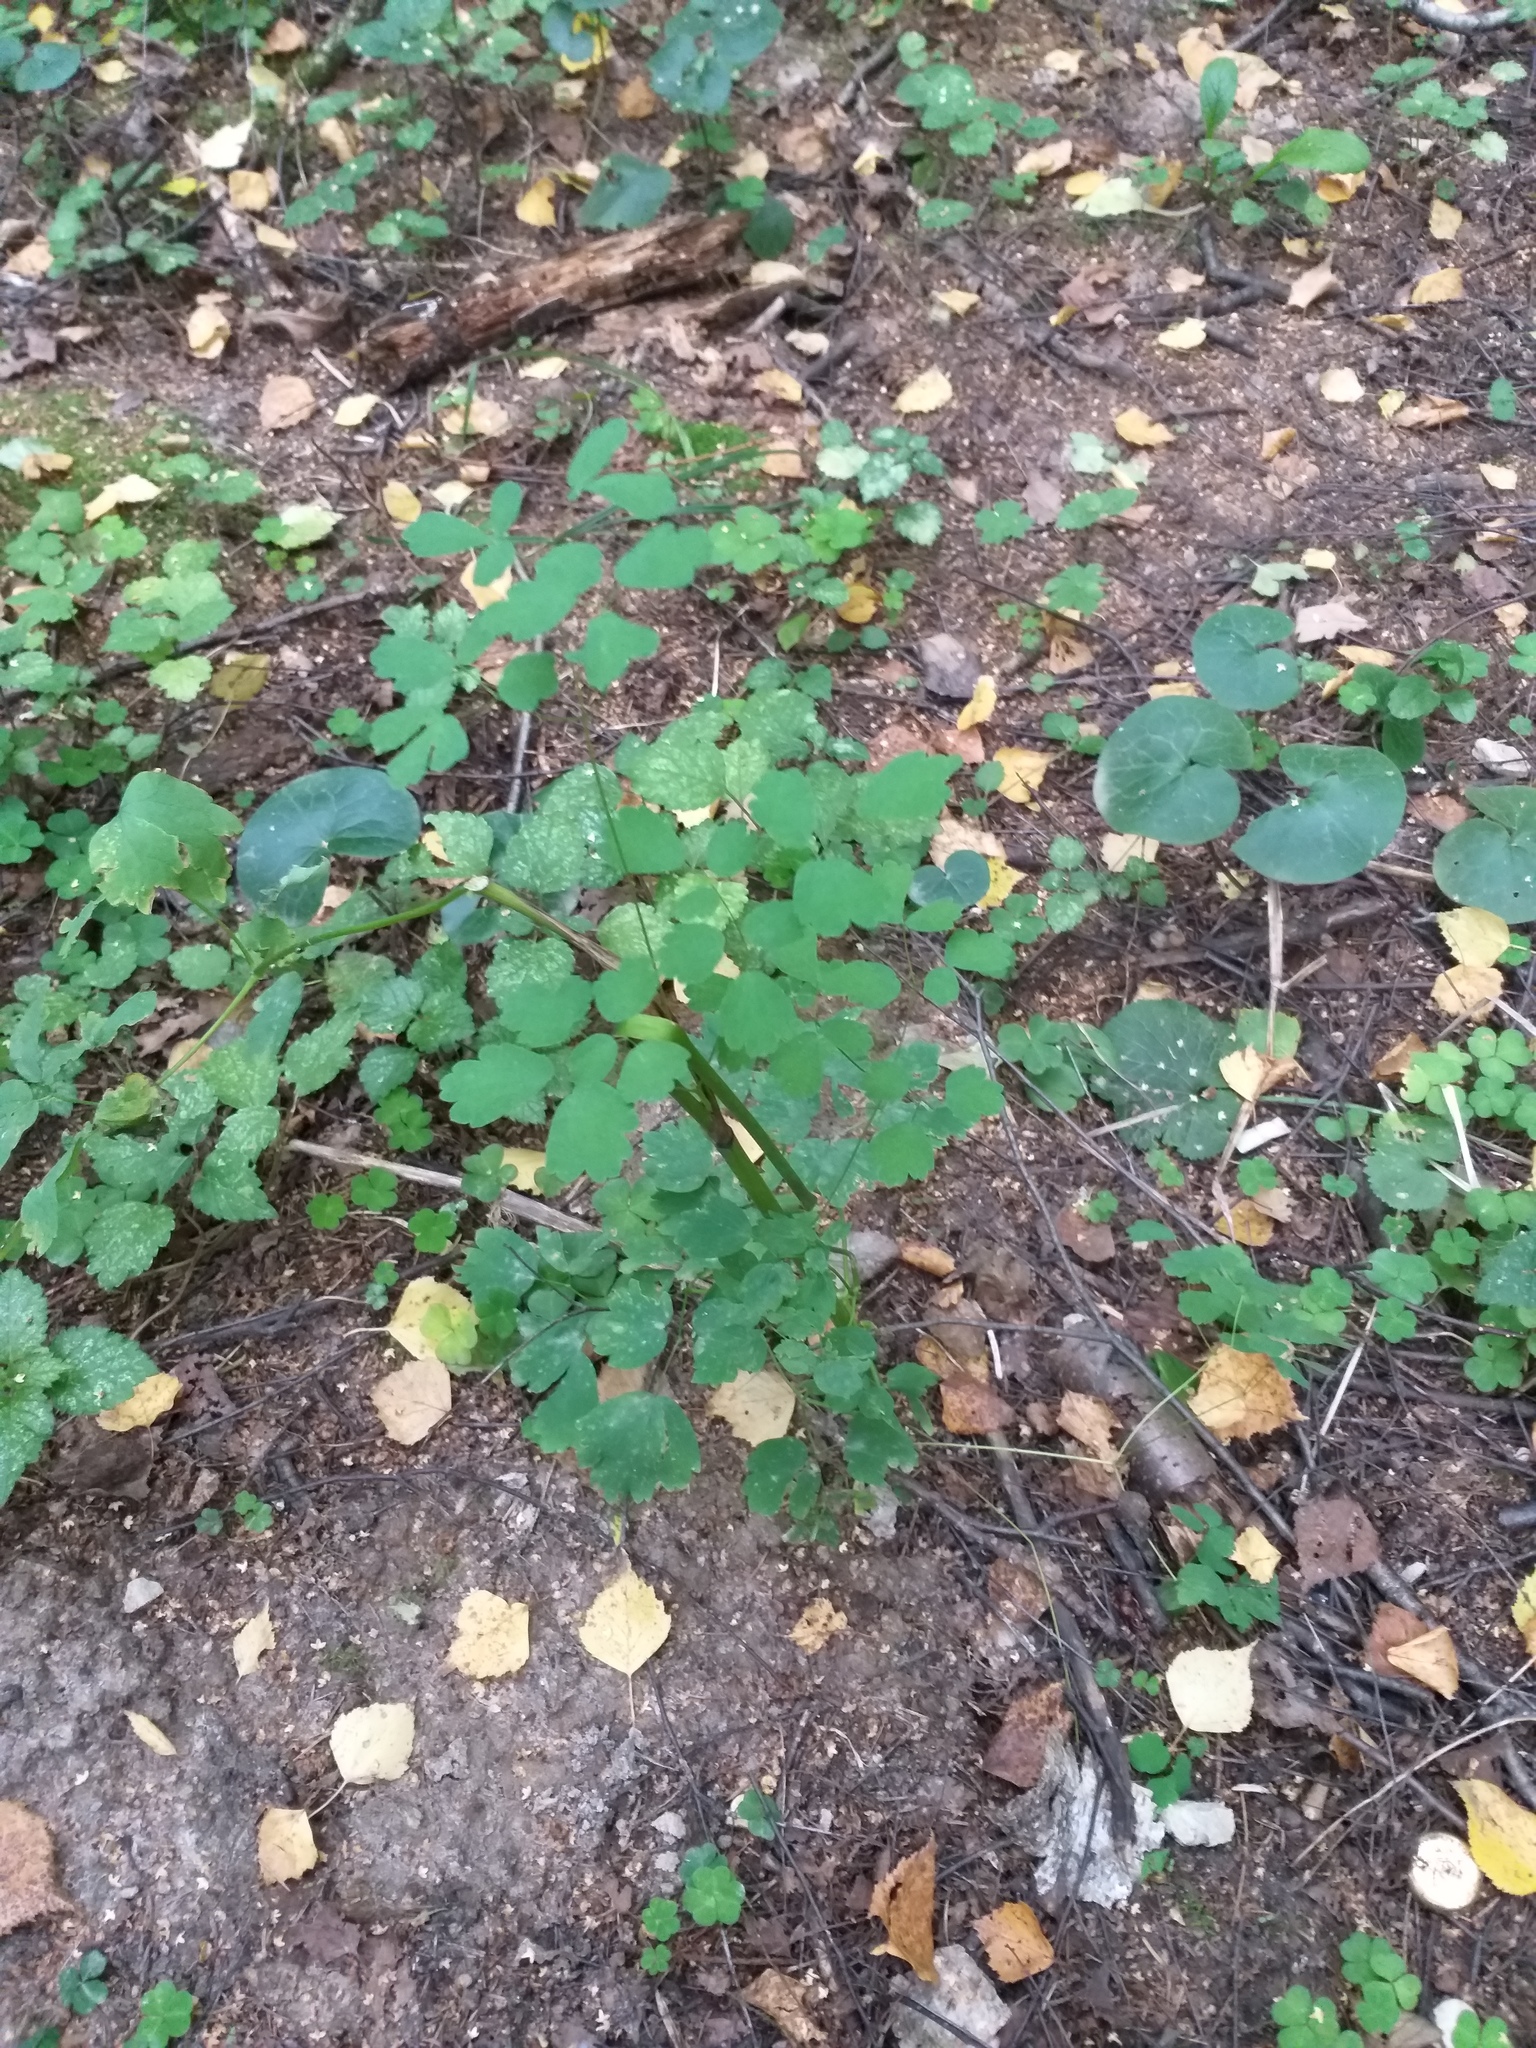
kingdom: Plantae
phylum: Tracheophyta
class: Magnoliopsida
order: Ranunculales
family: Ranunculaceae
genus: Thalictrum
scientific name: Thalictrum aquilegiifolium
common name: French meadow-rue
